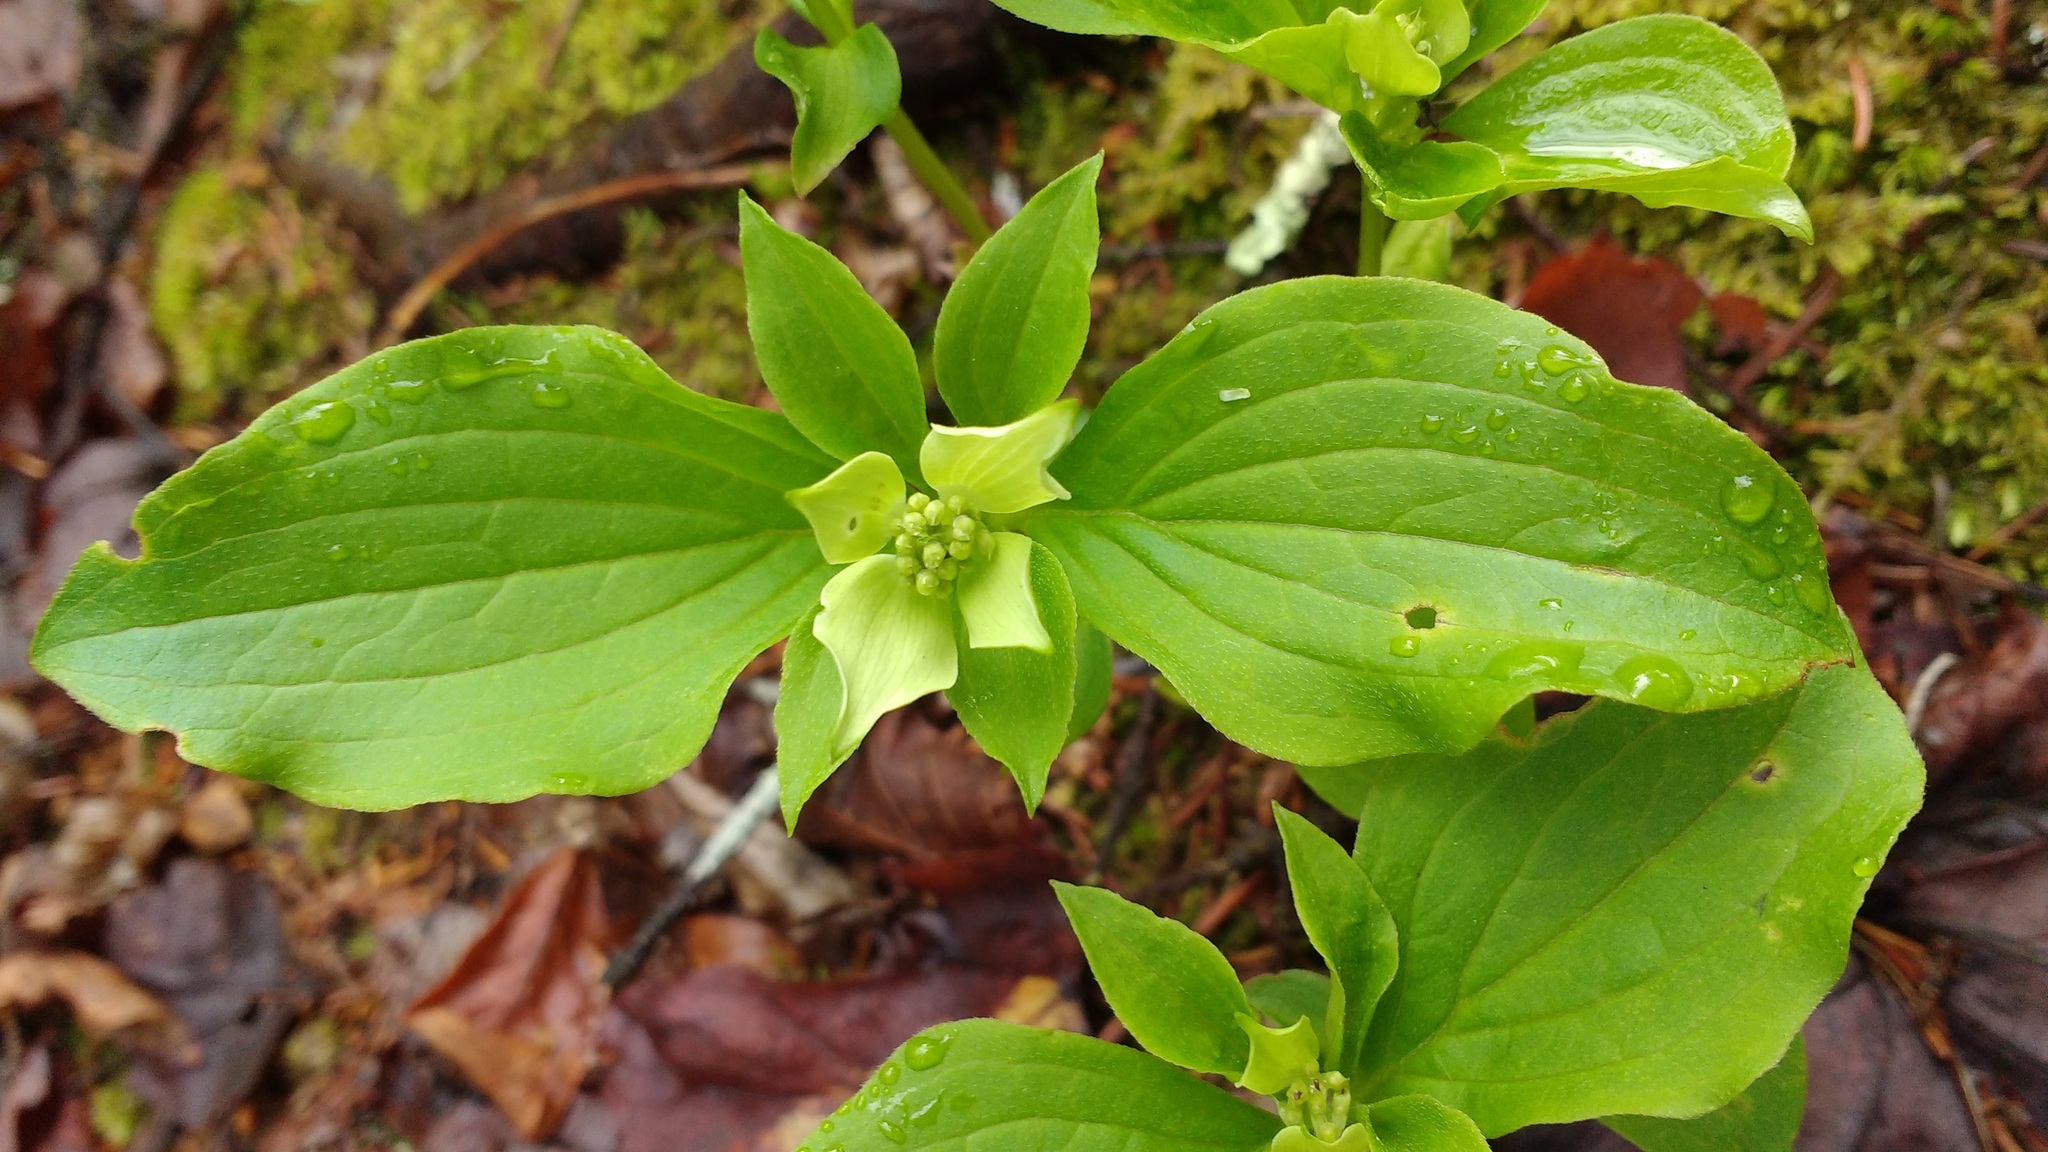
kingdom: Plantae
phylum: Tracheophyta
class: Magnoliopsida
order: Cornales
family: Cornaceae
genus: Cornus
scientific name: Cornus canadensis
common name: Creeping dogwood
